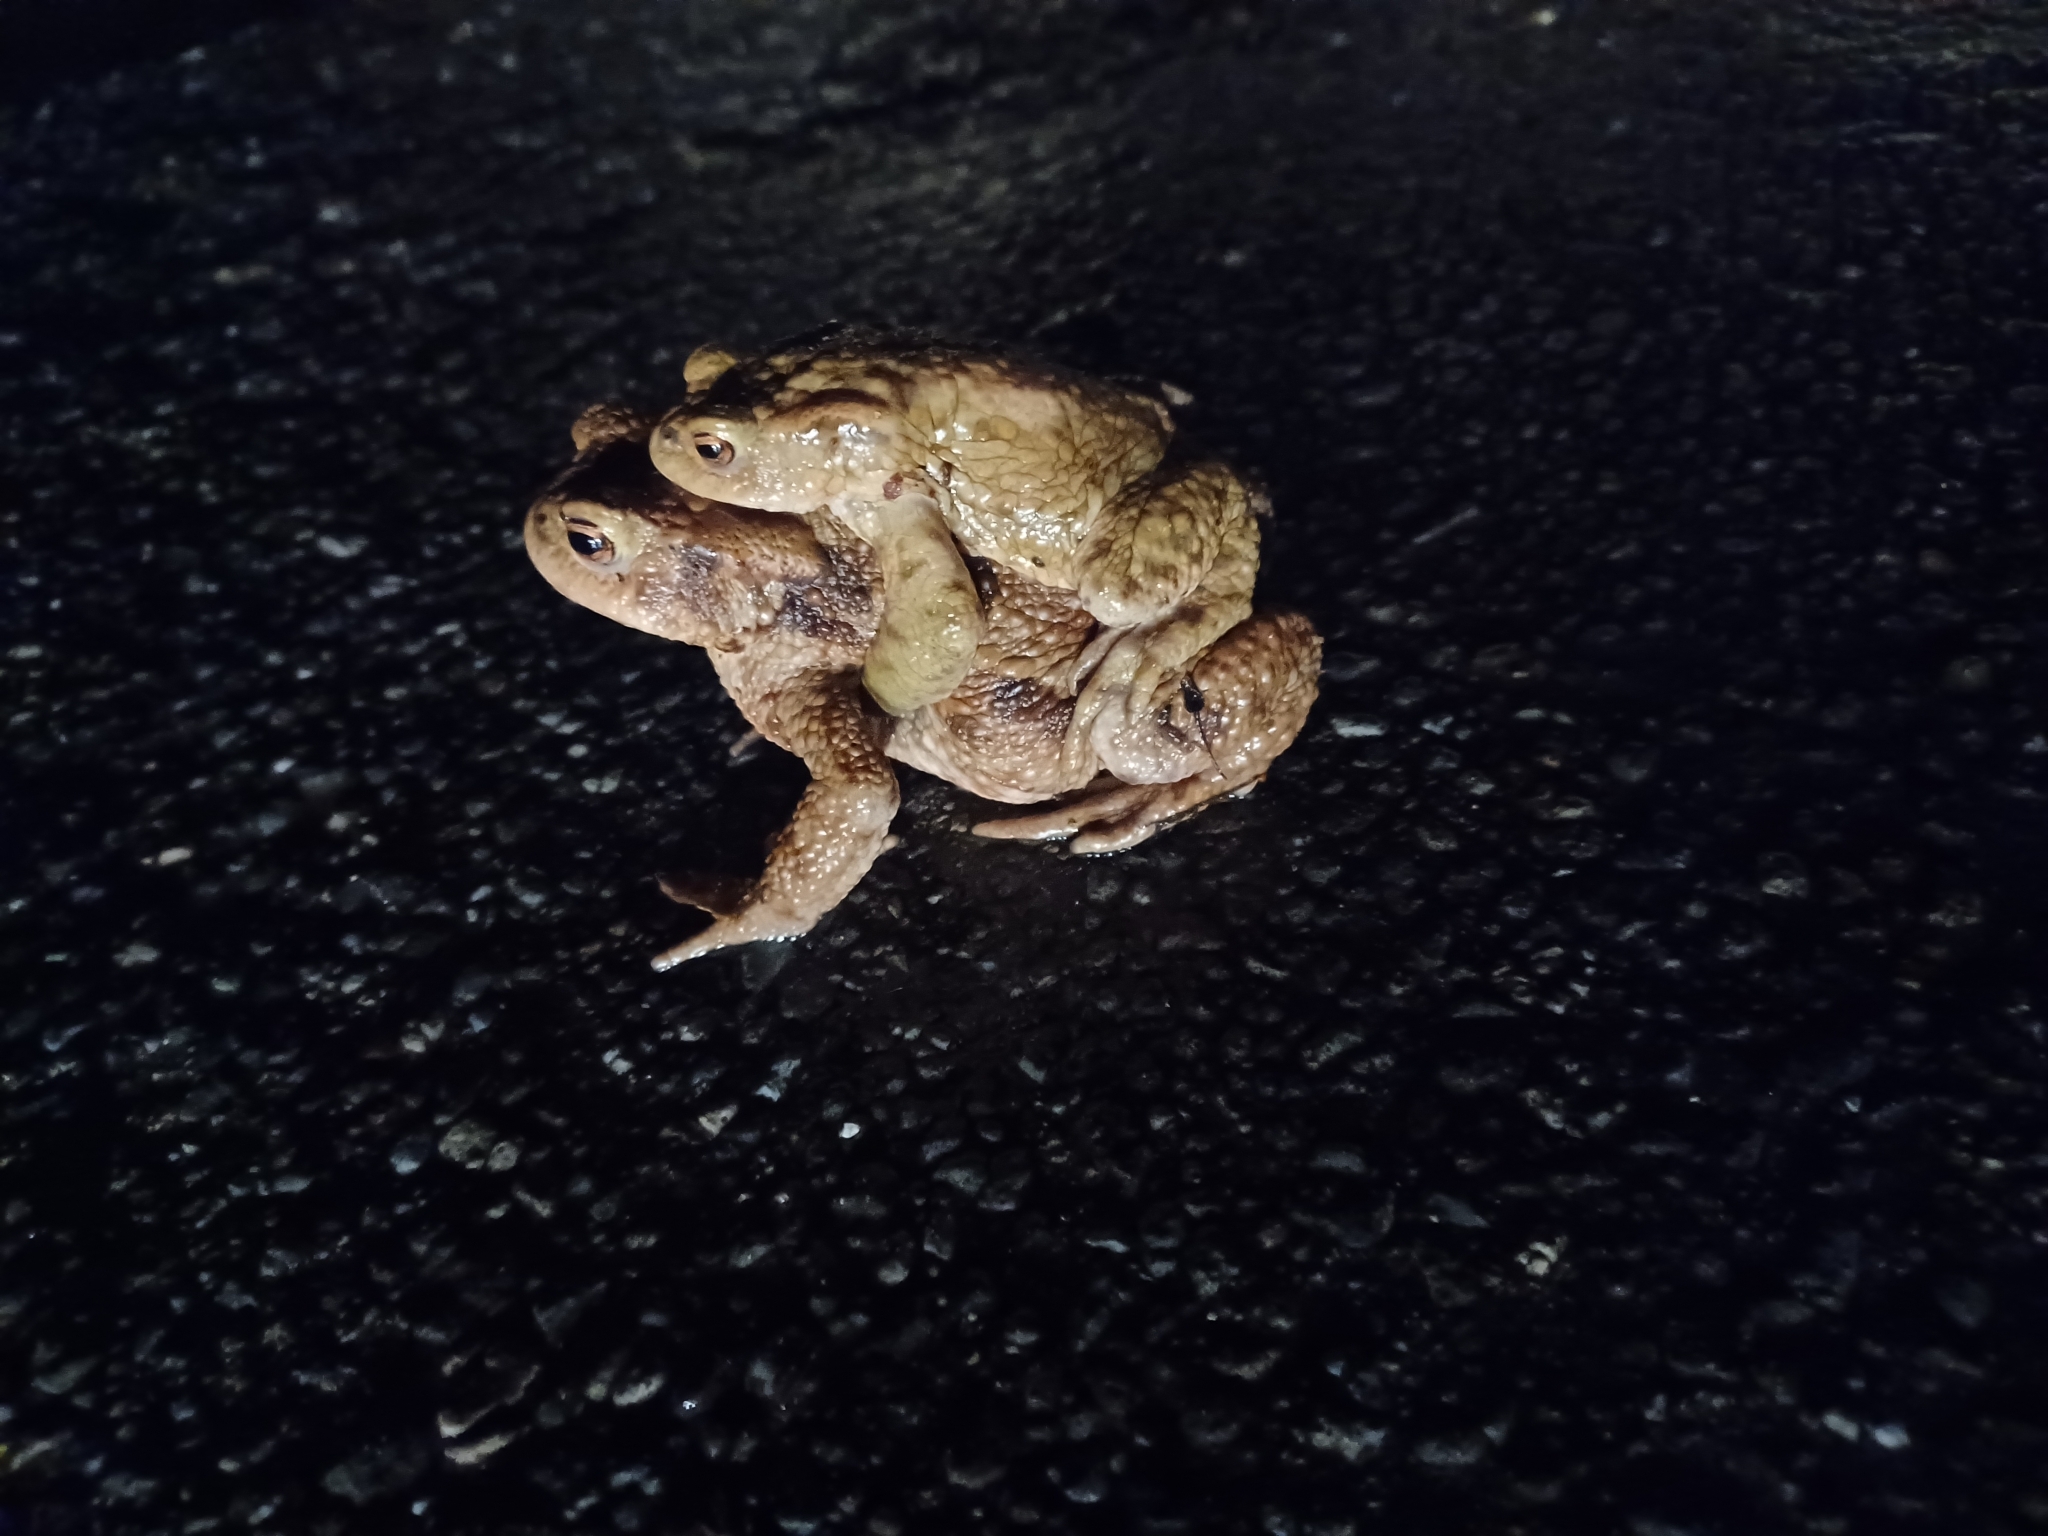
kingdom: Animalia
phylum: Chordata
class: Amphibia
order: Anura
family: Bufonidae
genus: Bufo
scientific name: Bufo bufo
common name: Common toad
